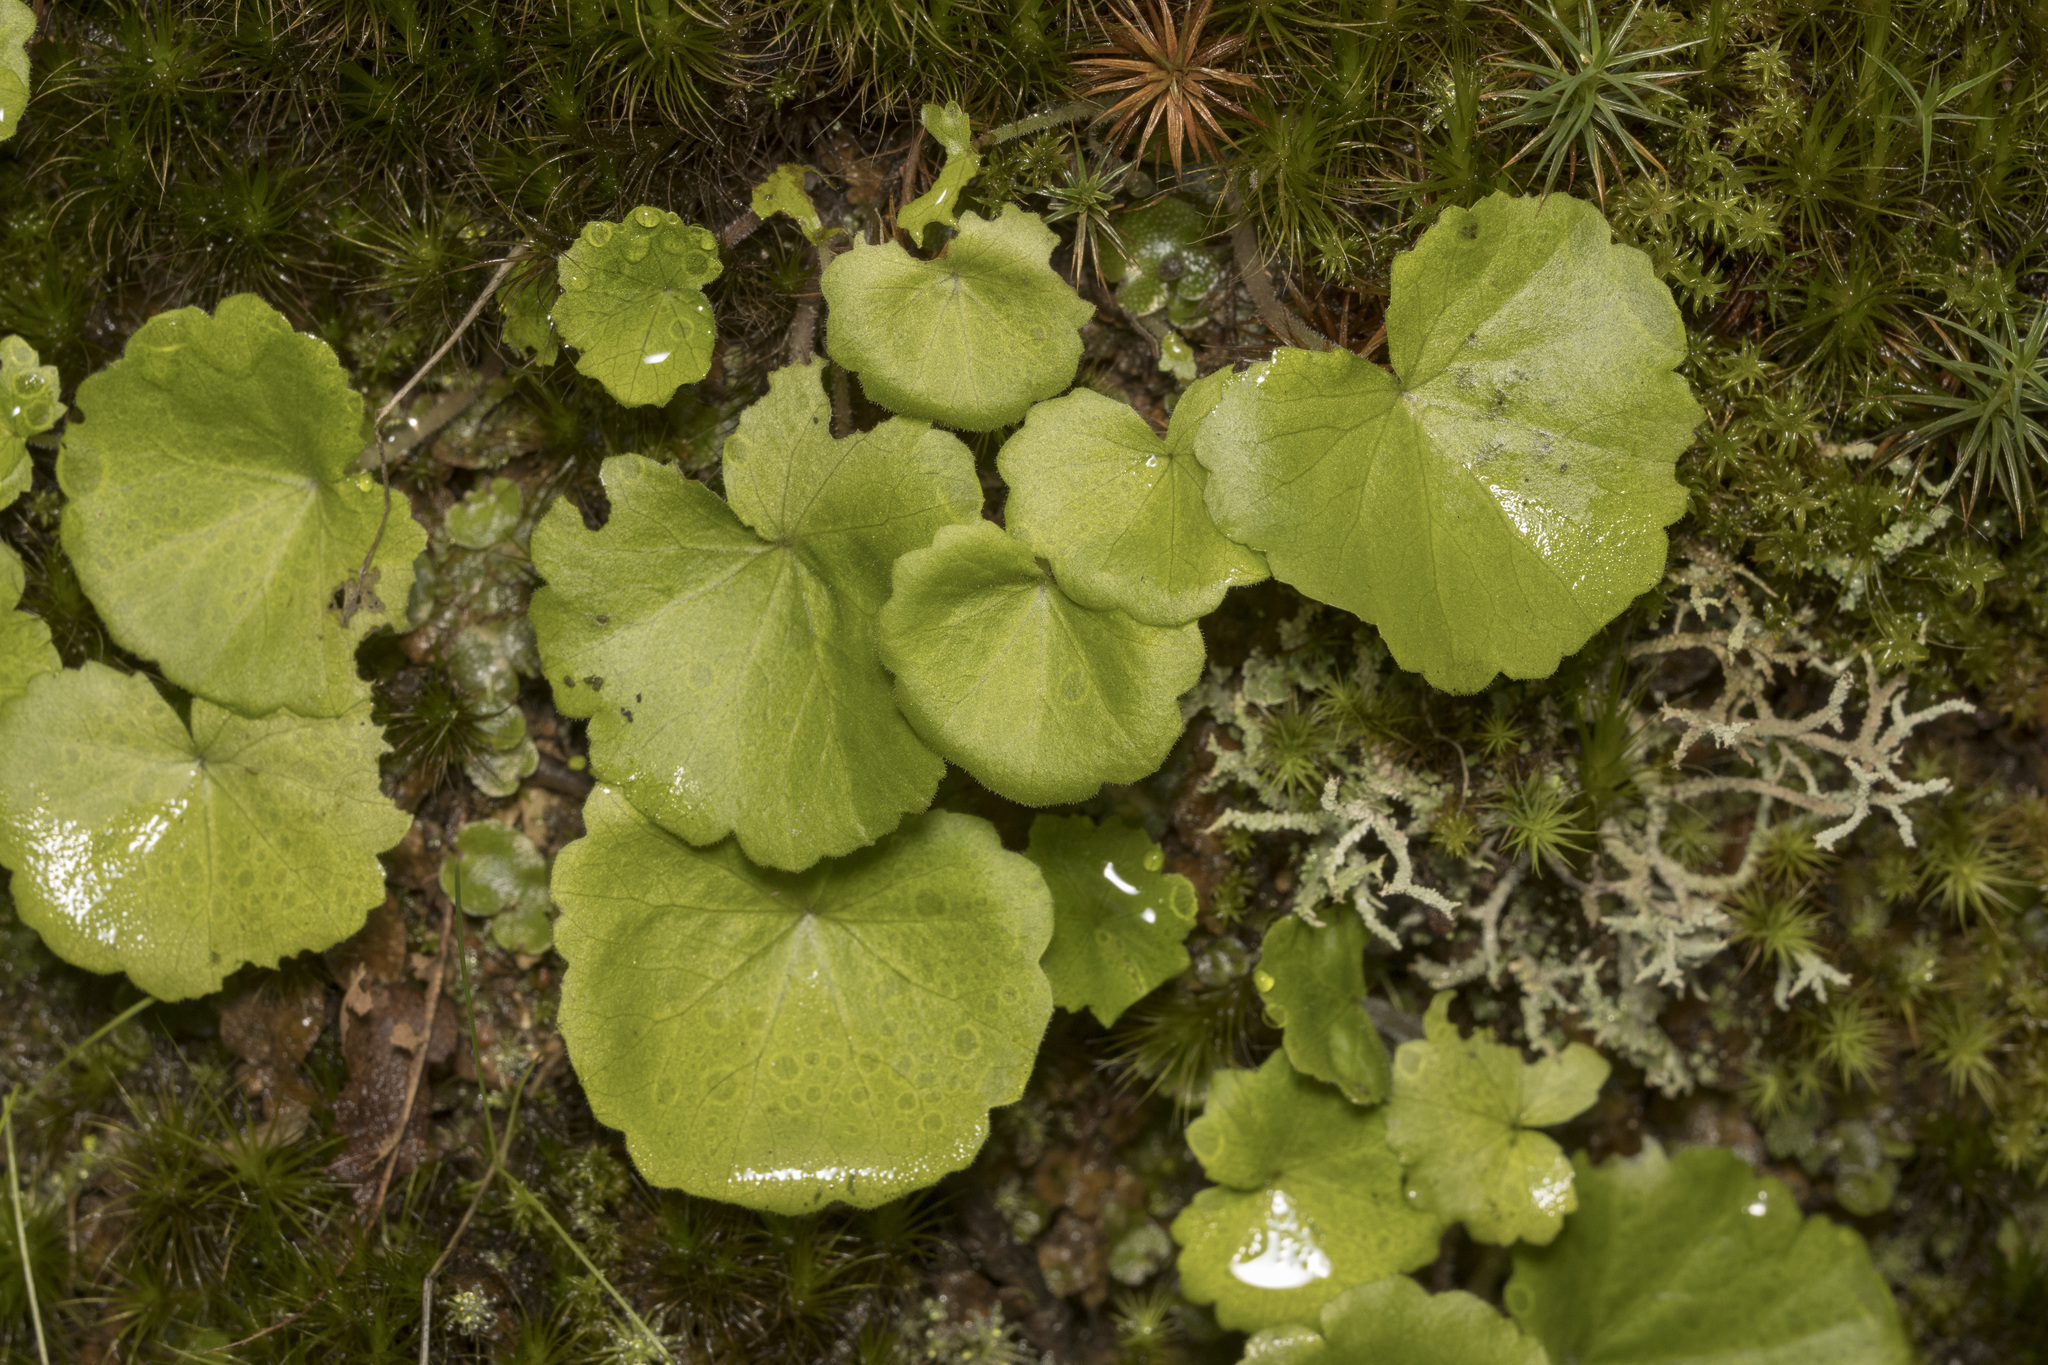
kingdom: Plantae
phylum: Tracheophyta
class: Magnoliopsida
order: Geraniales
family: Francoaceae
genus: Tetilla
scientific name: Tetilla hydrocotylifolia
